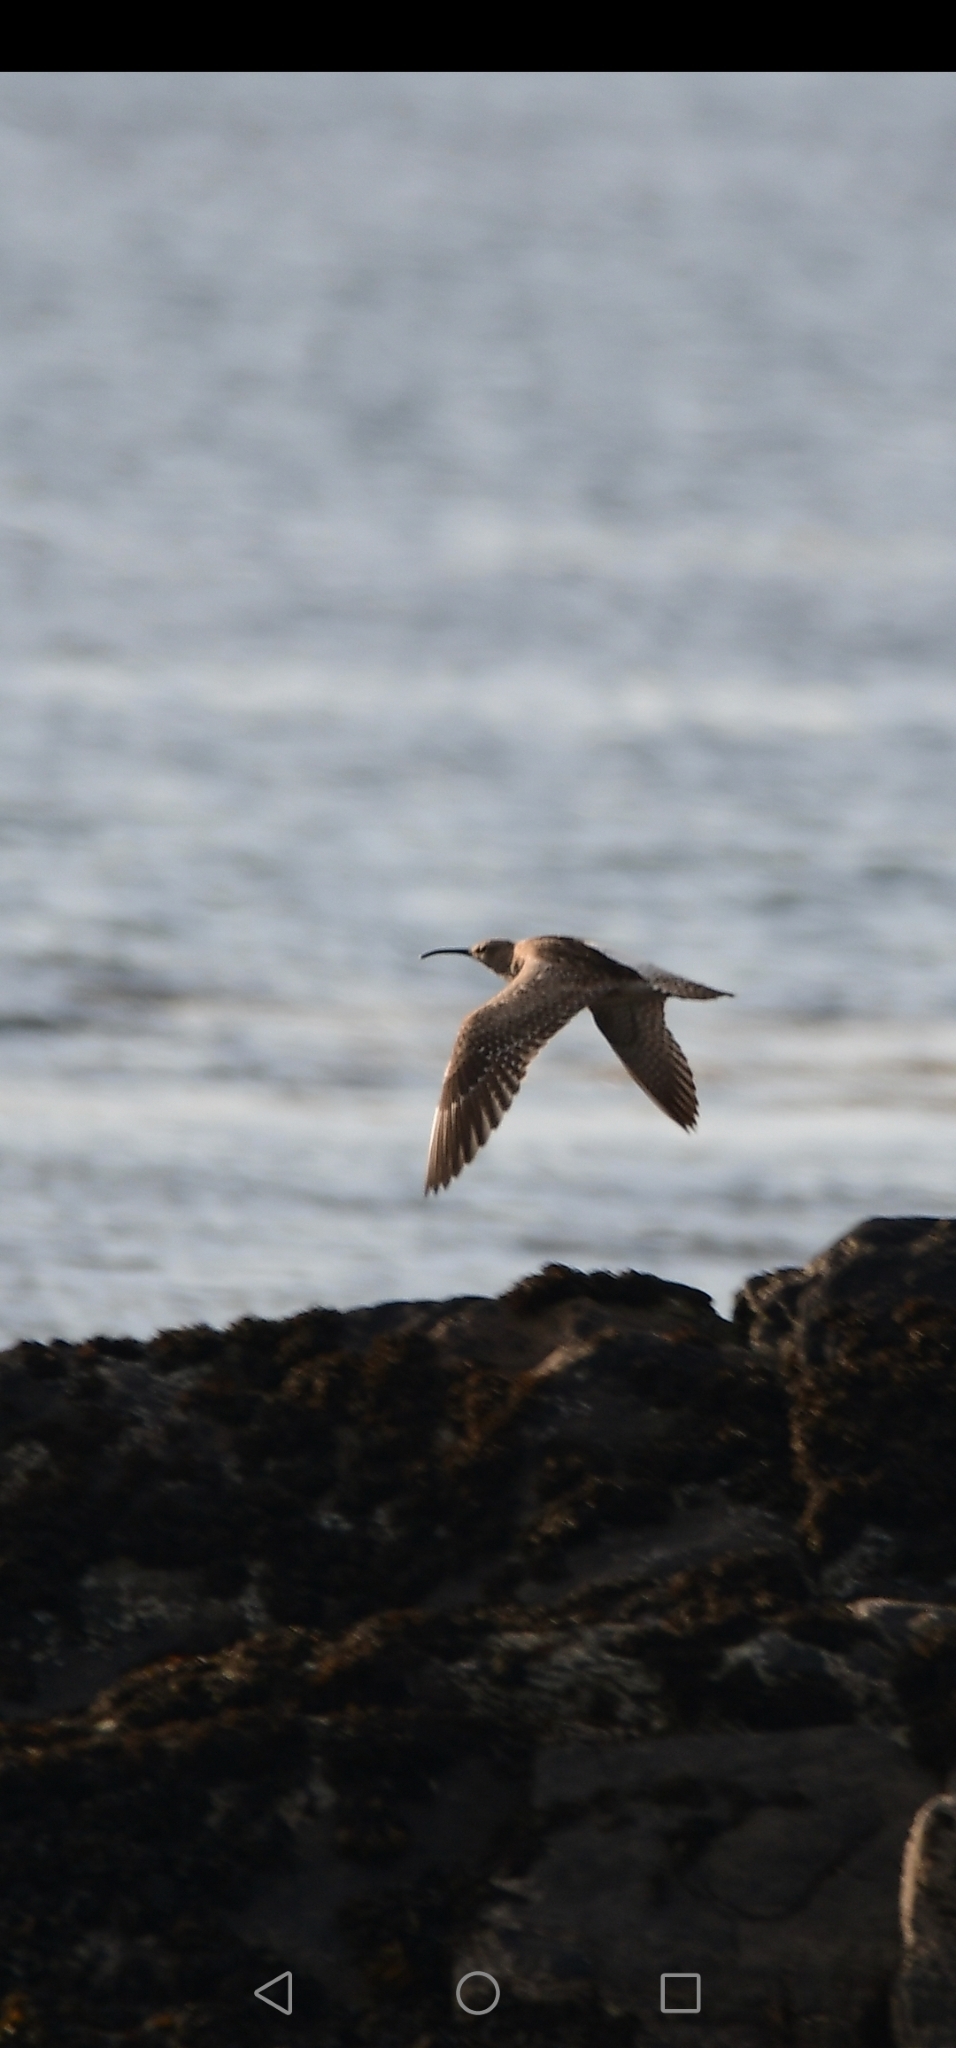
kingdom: Animalia
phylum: Chordata
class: Aves
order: Charadriiformes
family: Scolopacidae
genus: Numenius
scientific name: Numenius phaeopus
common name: Whimbrel
